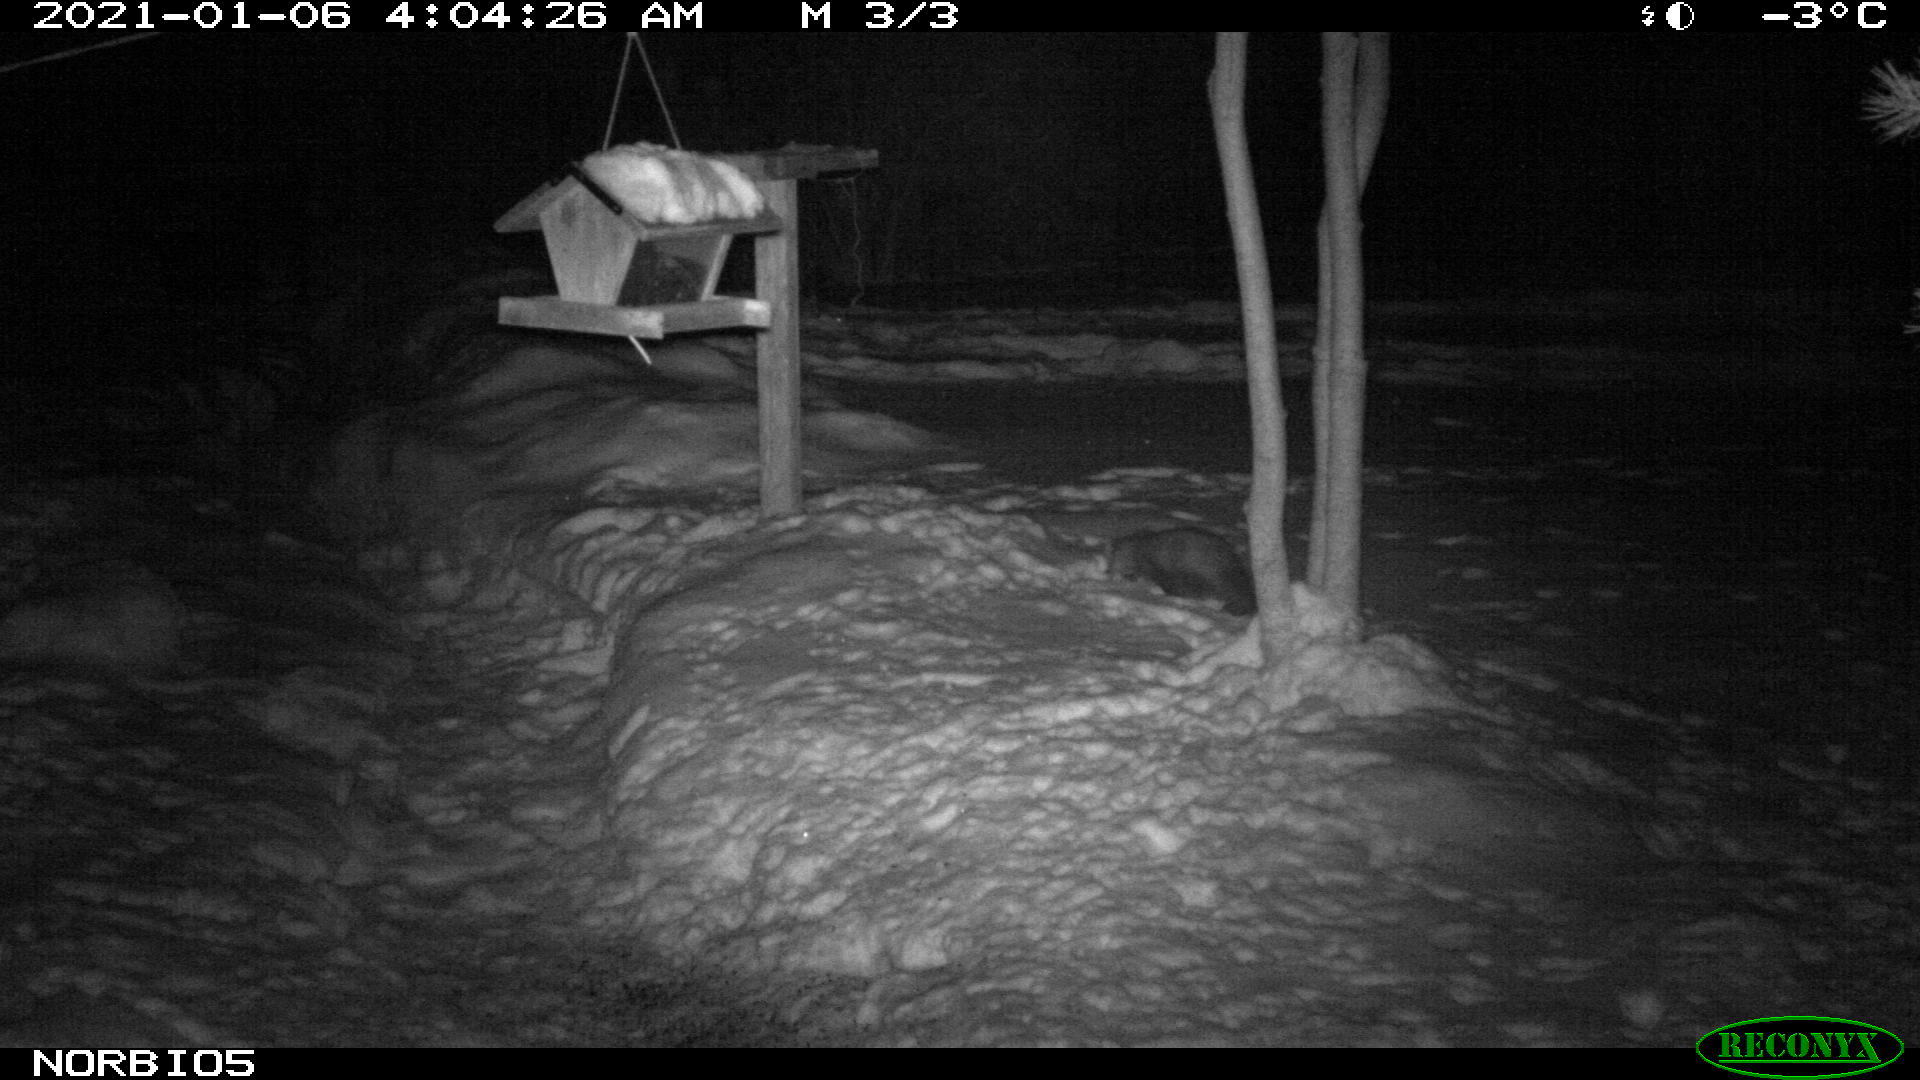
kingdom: Animalia
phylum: Chordata
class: Mammalia
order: Carnivora
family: Mustelidae
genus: Martes
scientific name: Martes americana
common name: American marten
